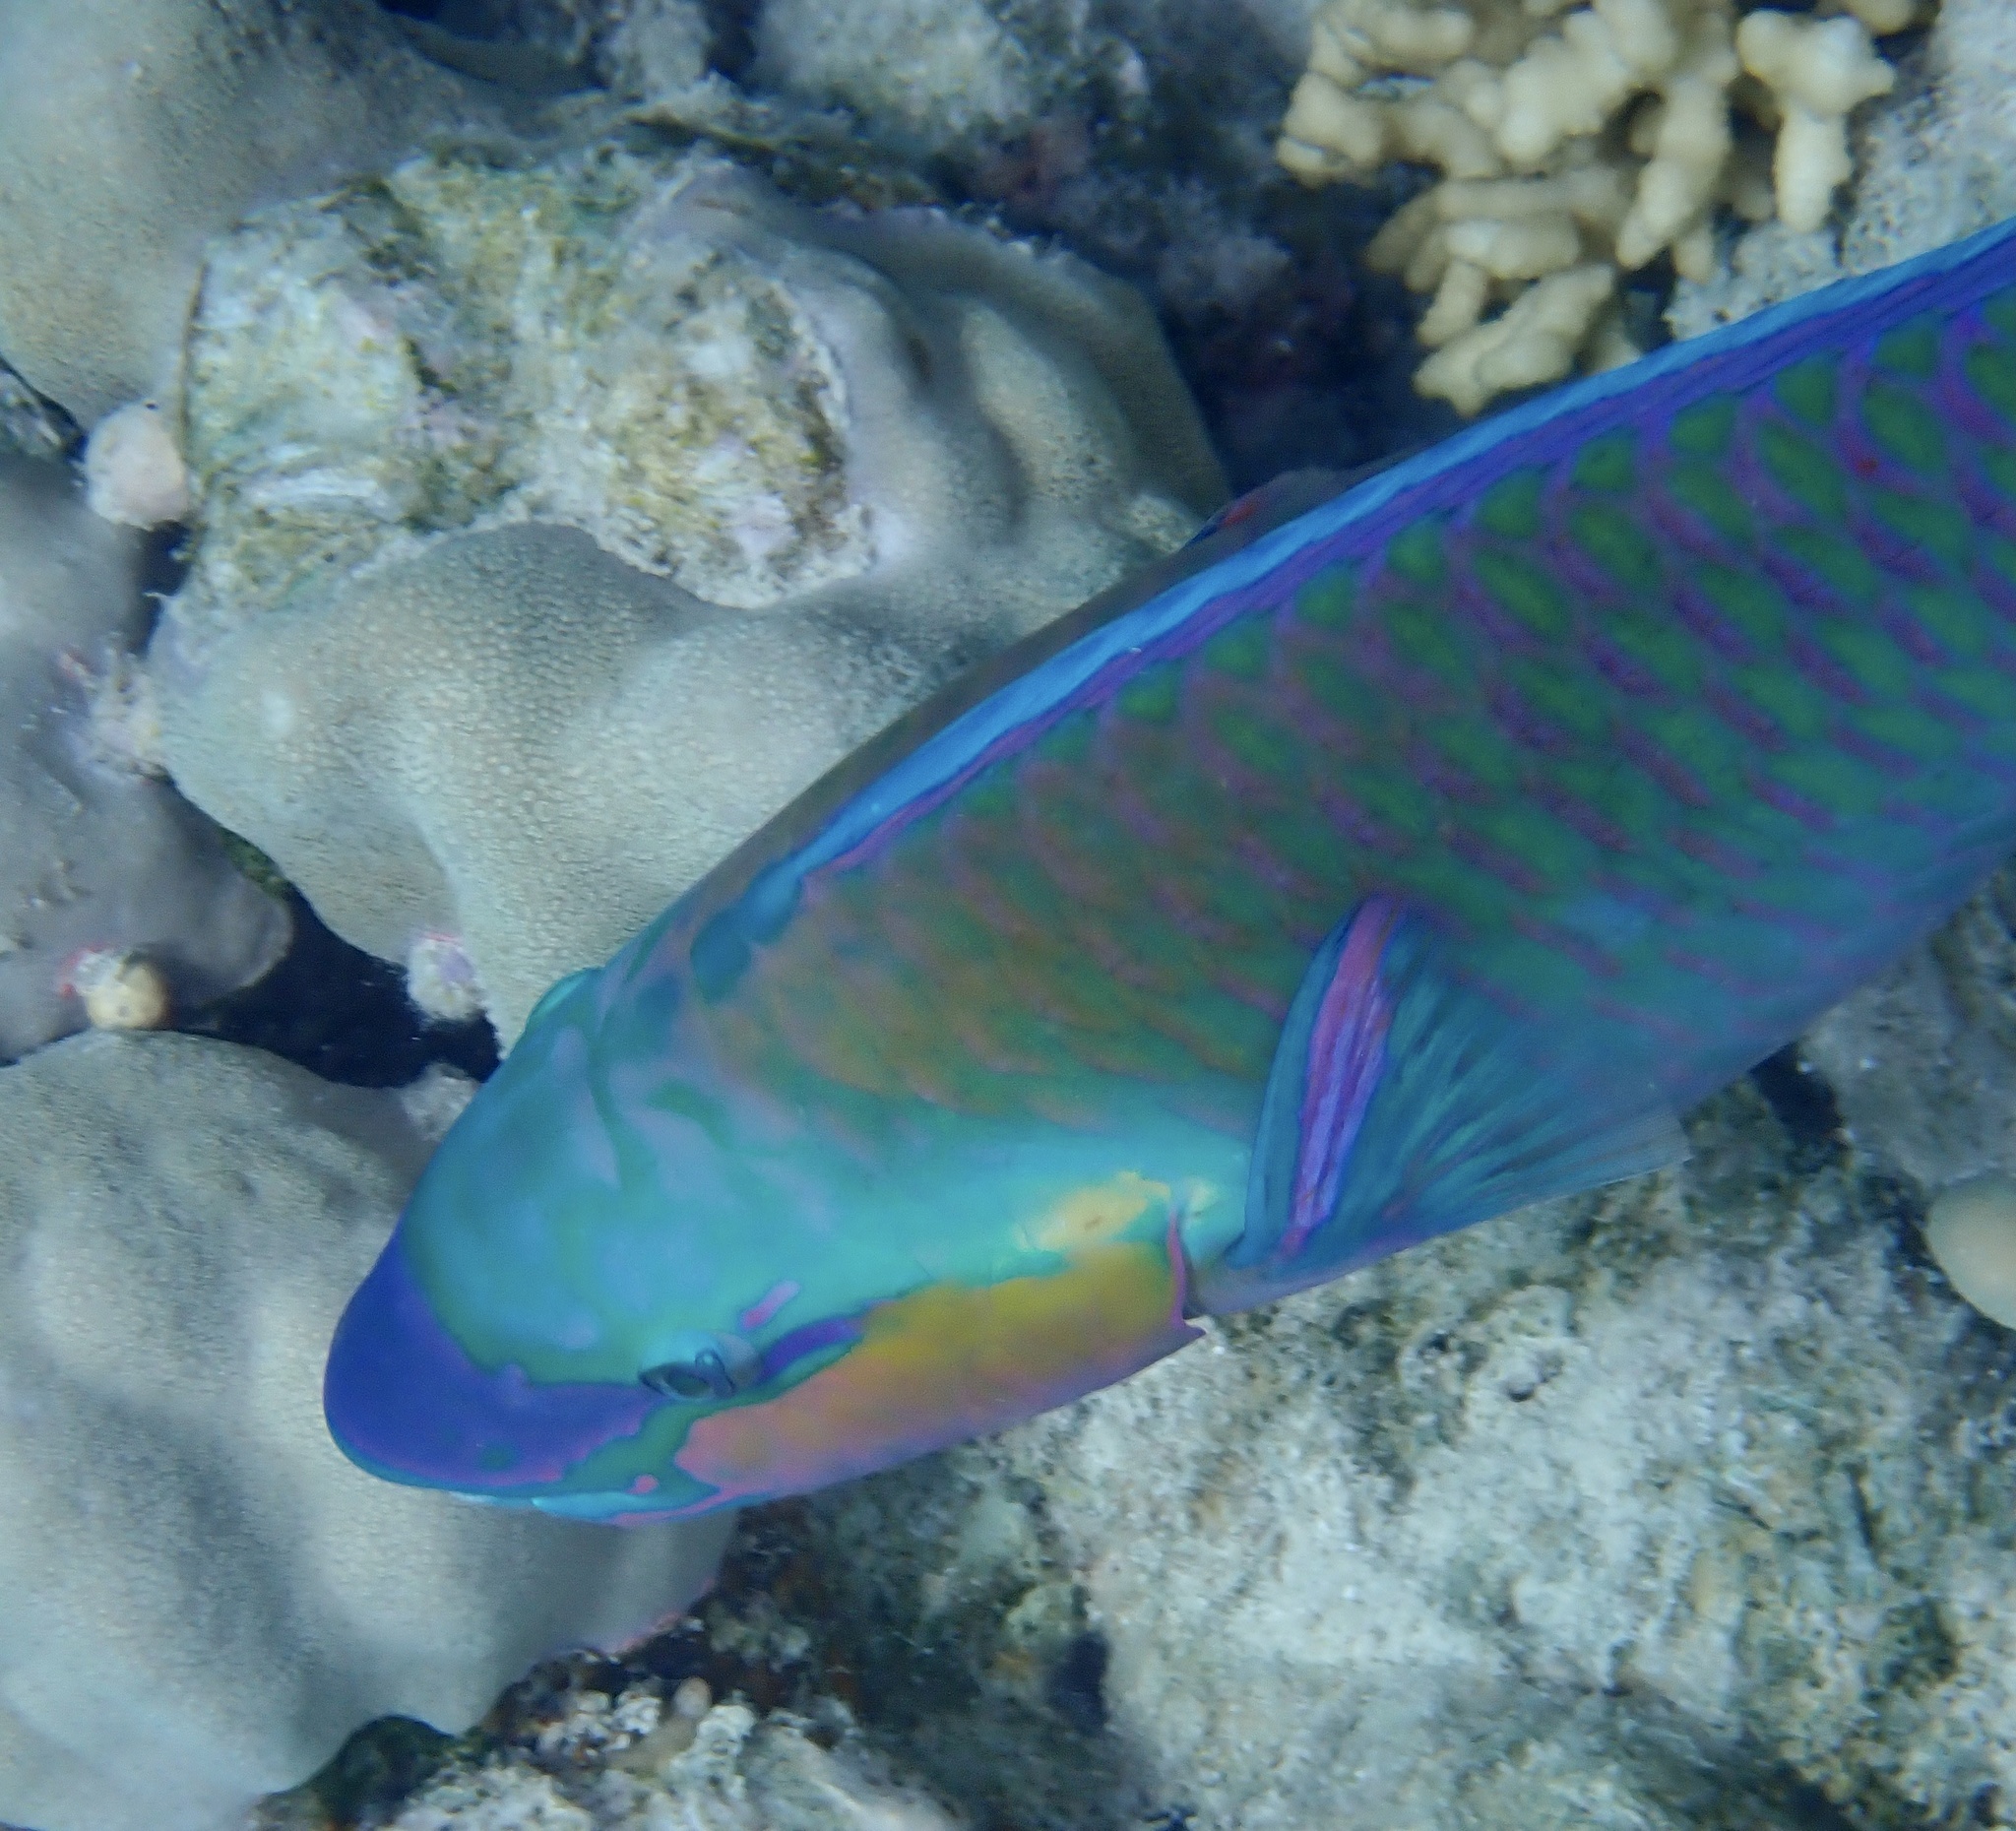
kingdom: Animalia
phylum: Chordata
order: Perciformes
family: Scaridae
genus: Chlorurus
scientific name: Chlorurus sordidus
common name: Bullethead parrotfish
